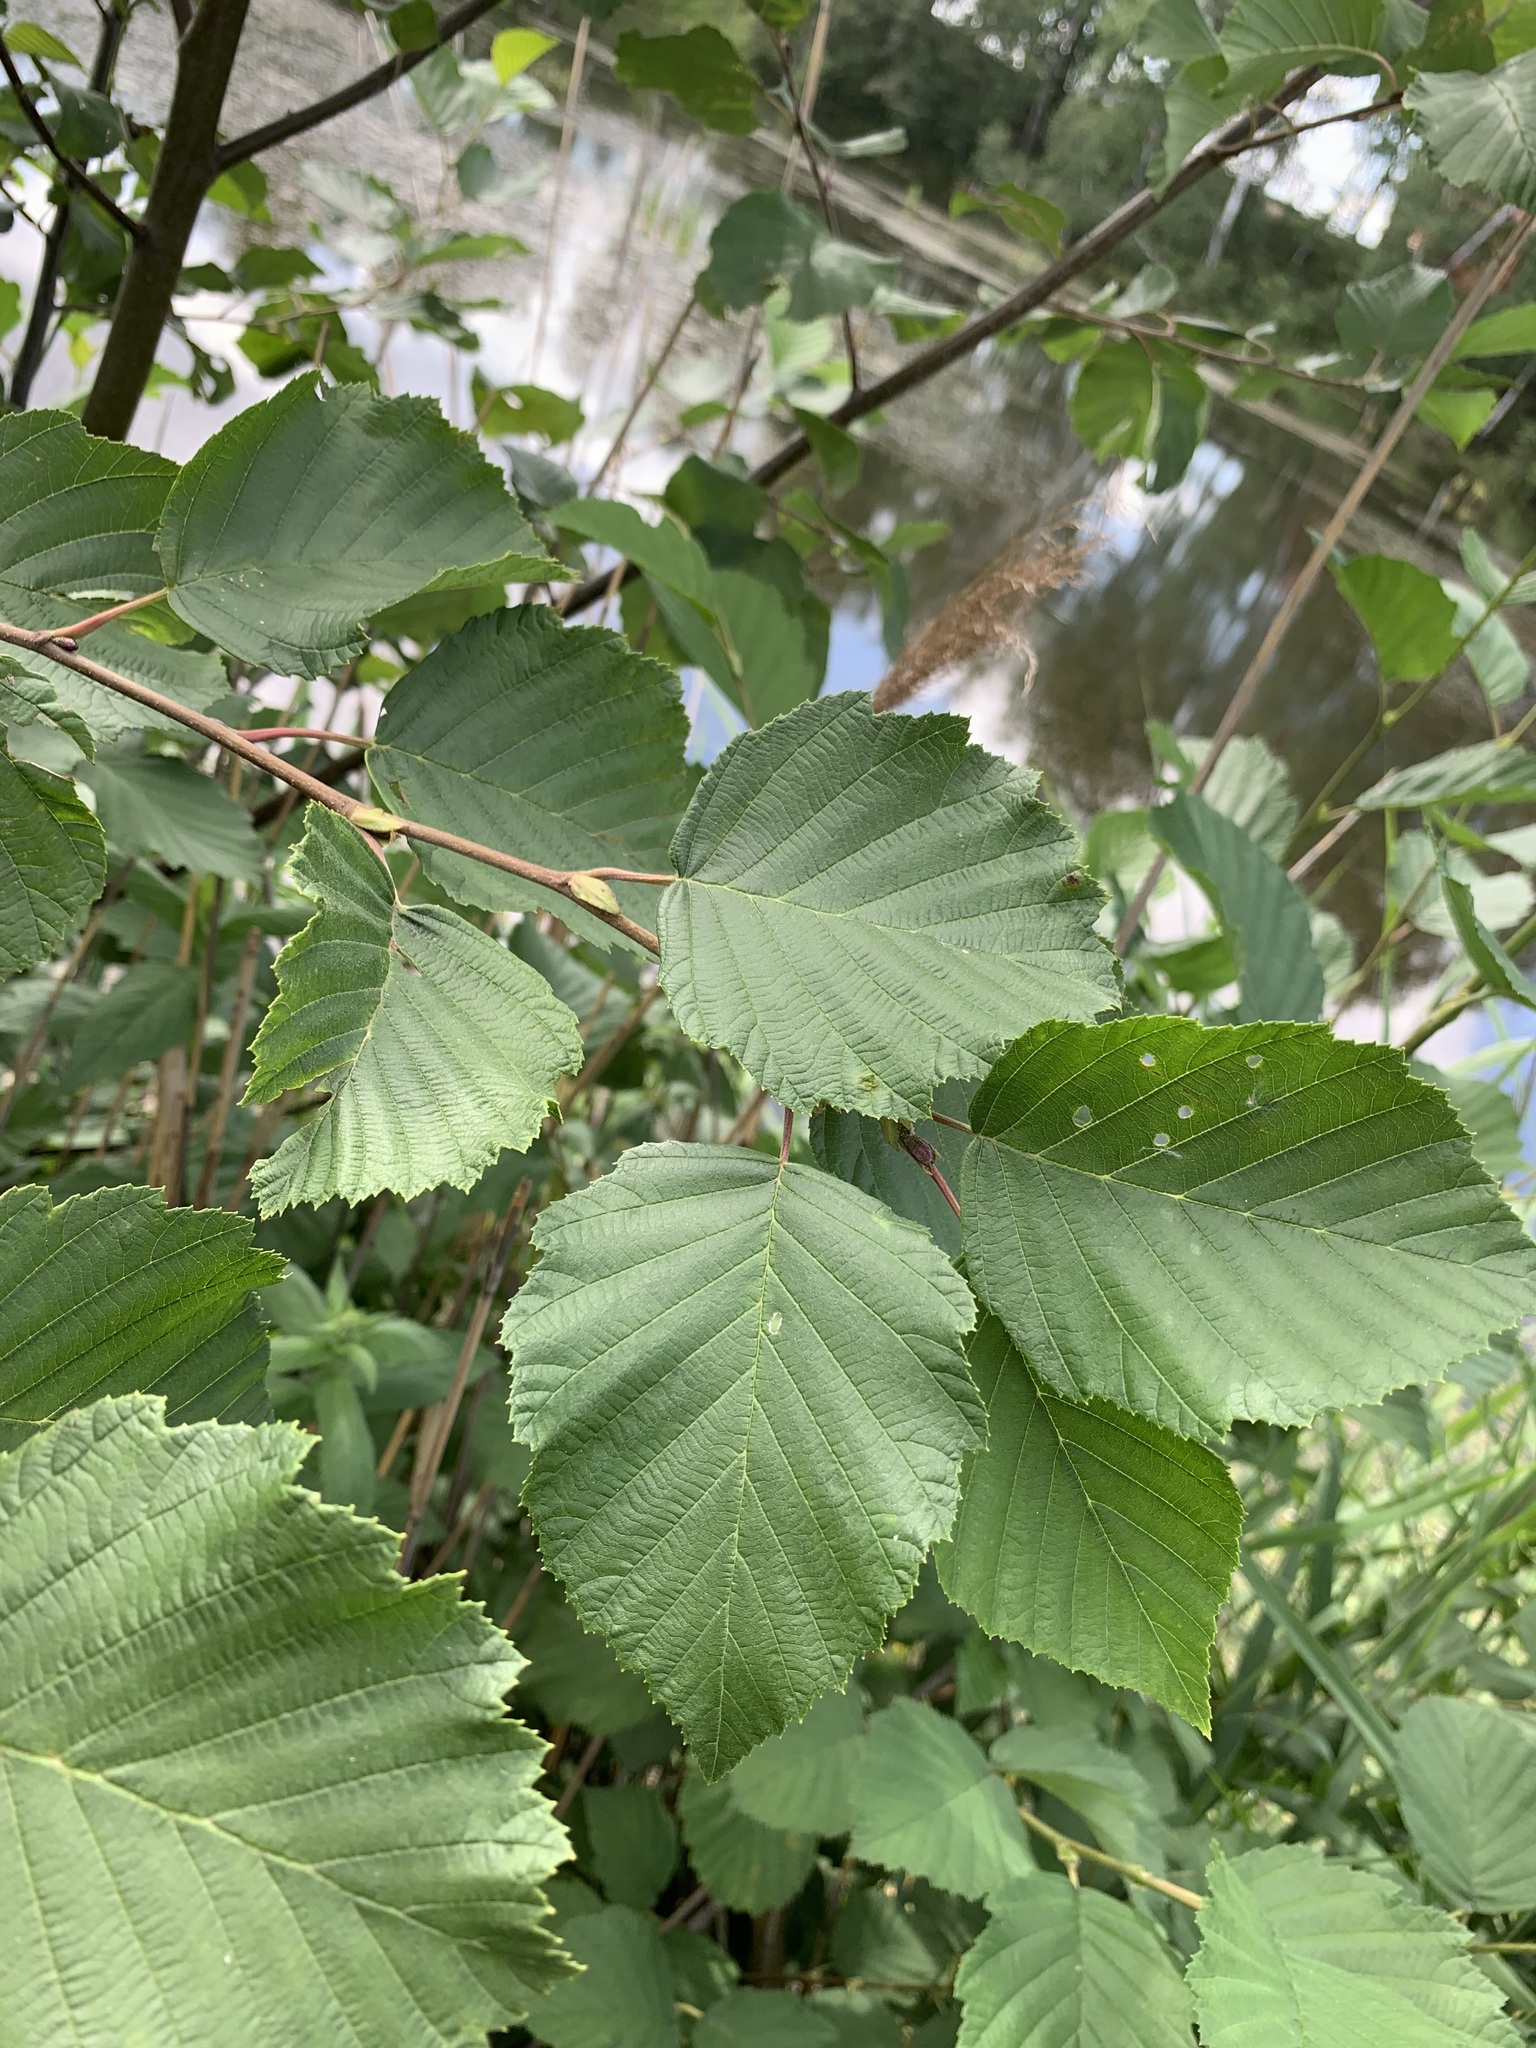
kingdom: Plantae
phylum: Tracheophyta
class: Magnoliopsida
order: Fagales
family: Betulaceae
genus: Alnus
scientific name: Alnus incana
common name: Grey alder
